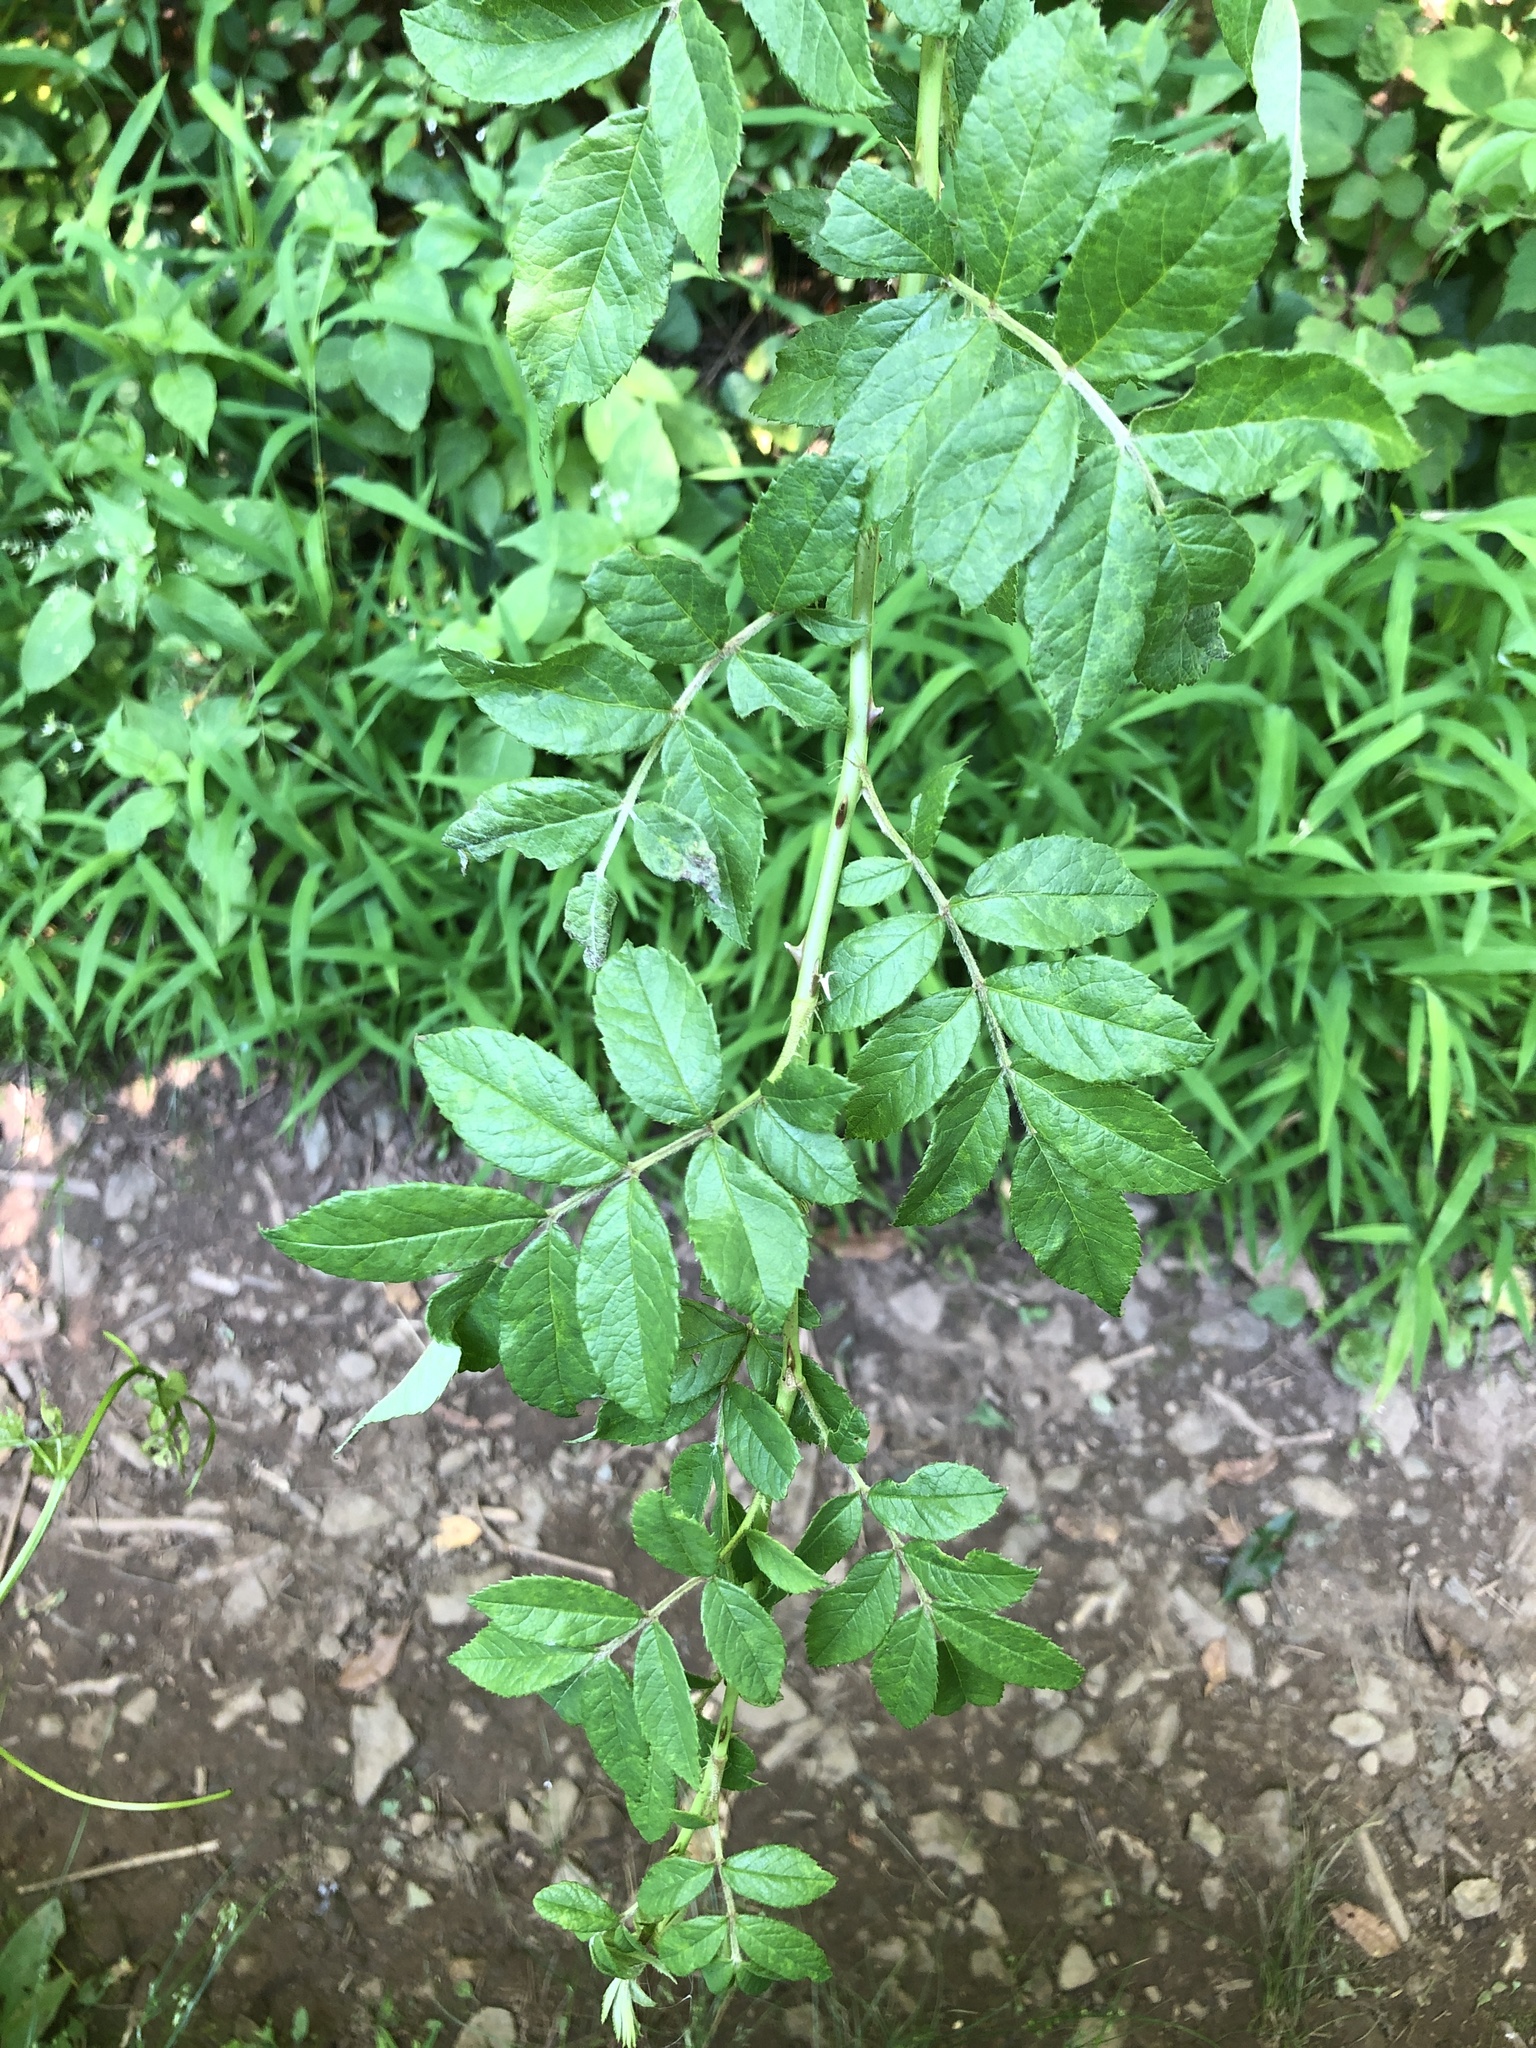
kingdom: Plantae
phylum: Tracheophyta
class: Magnoliopsida
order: Rosales
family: Rosaceae
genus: Rosa
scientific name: Rosa multiflora
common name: Multiflora rose
